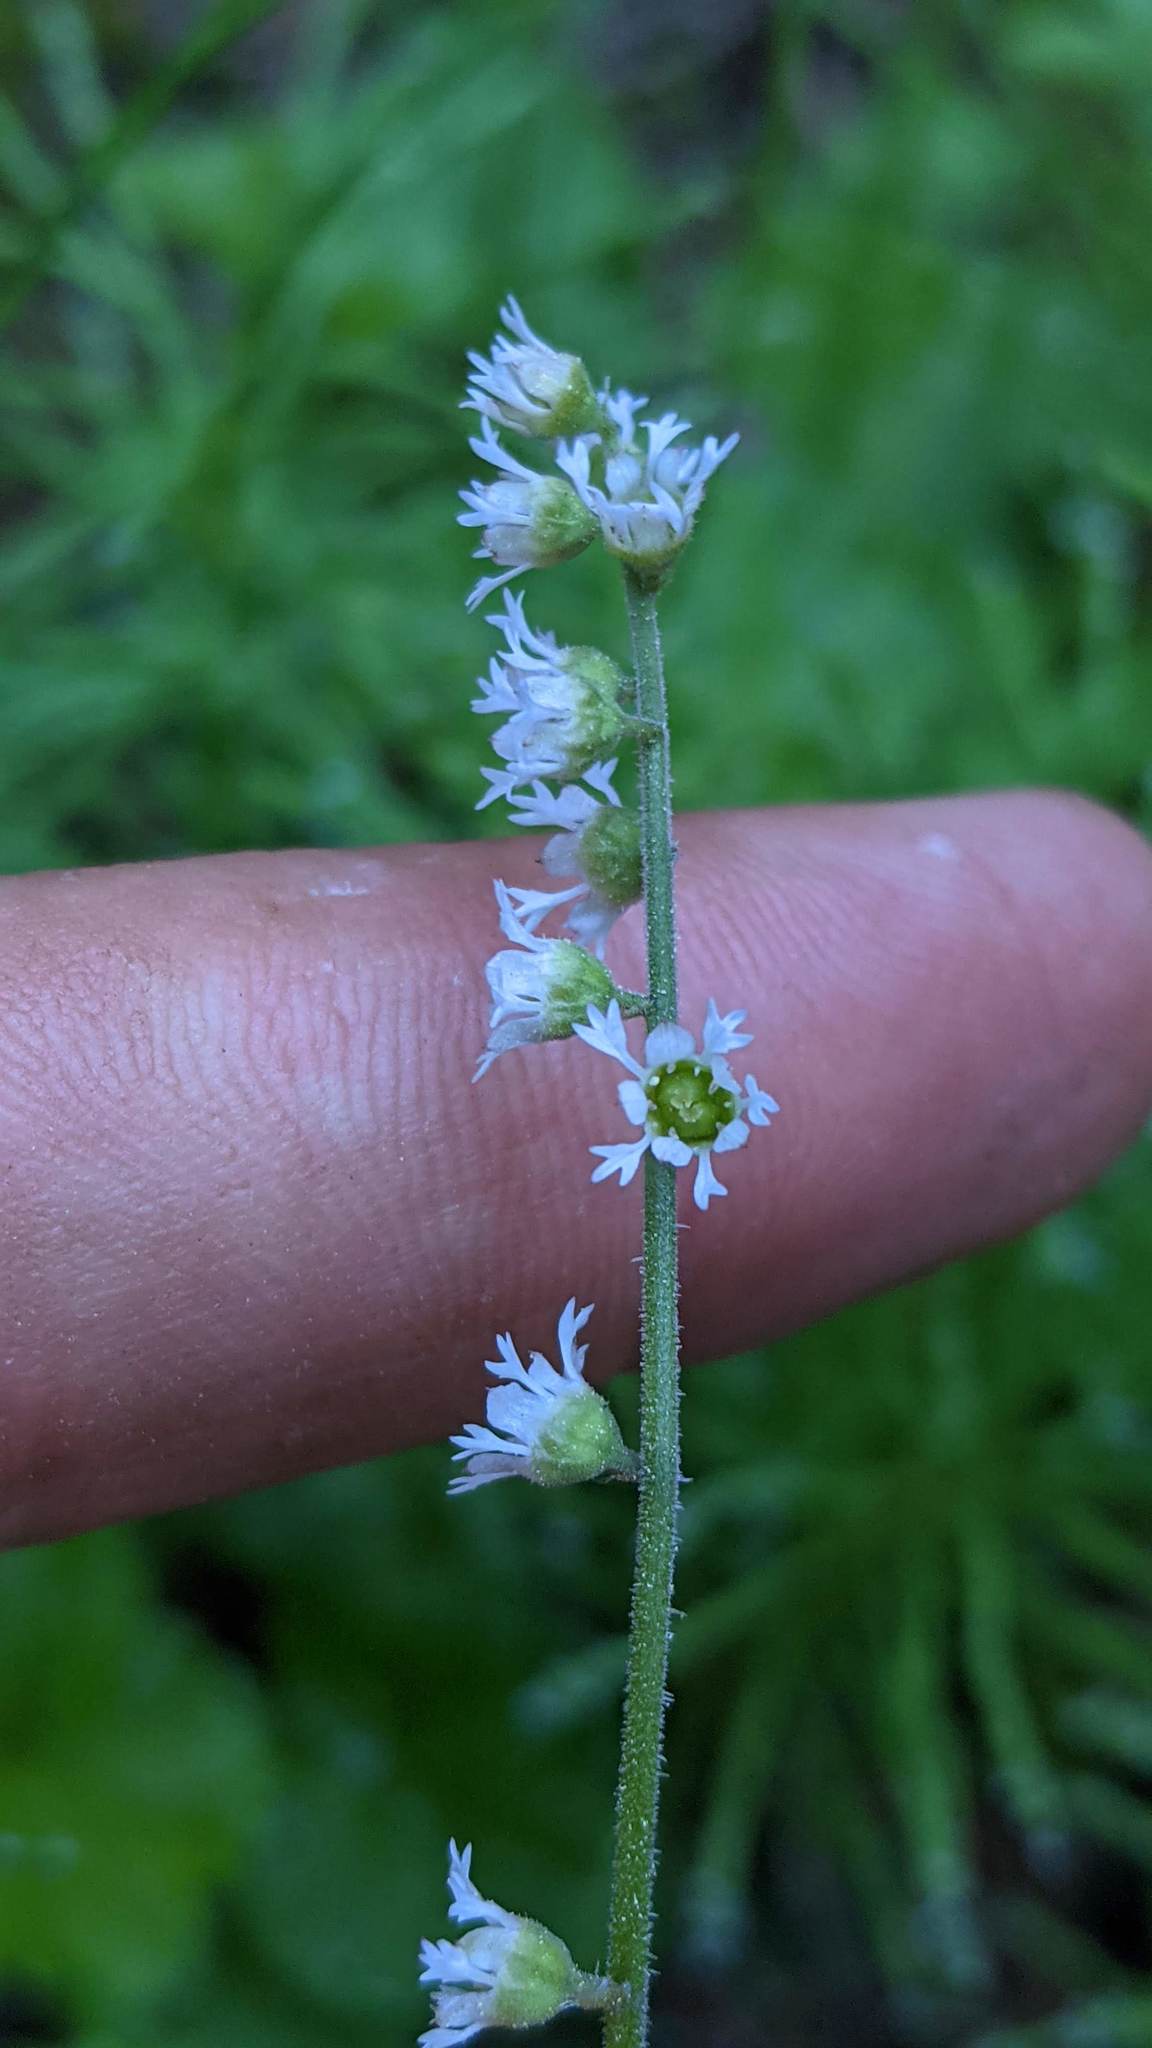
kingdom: Plantae
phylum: Tracheophyta
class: Magnoliopsida
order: Saxifragales
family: Saxifragaceae
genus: Ozomelis
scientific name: Ozomelis trifida
